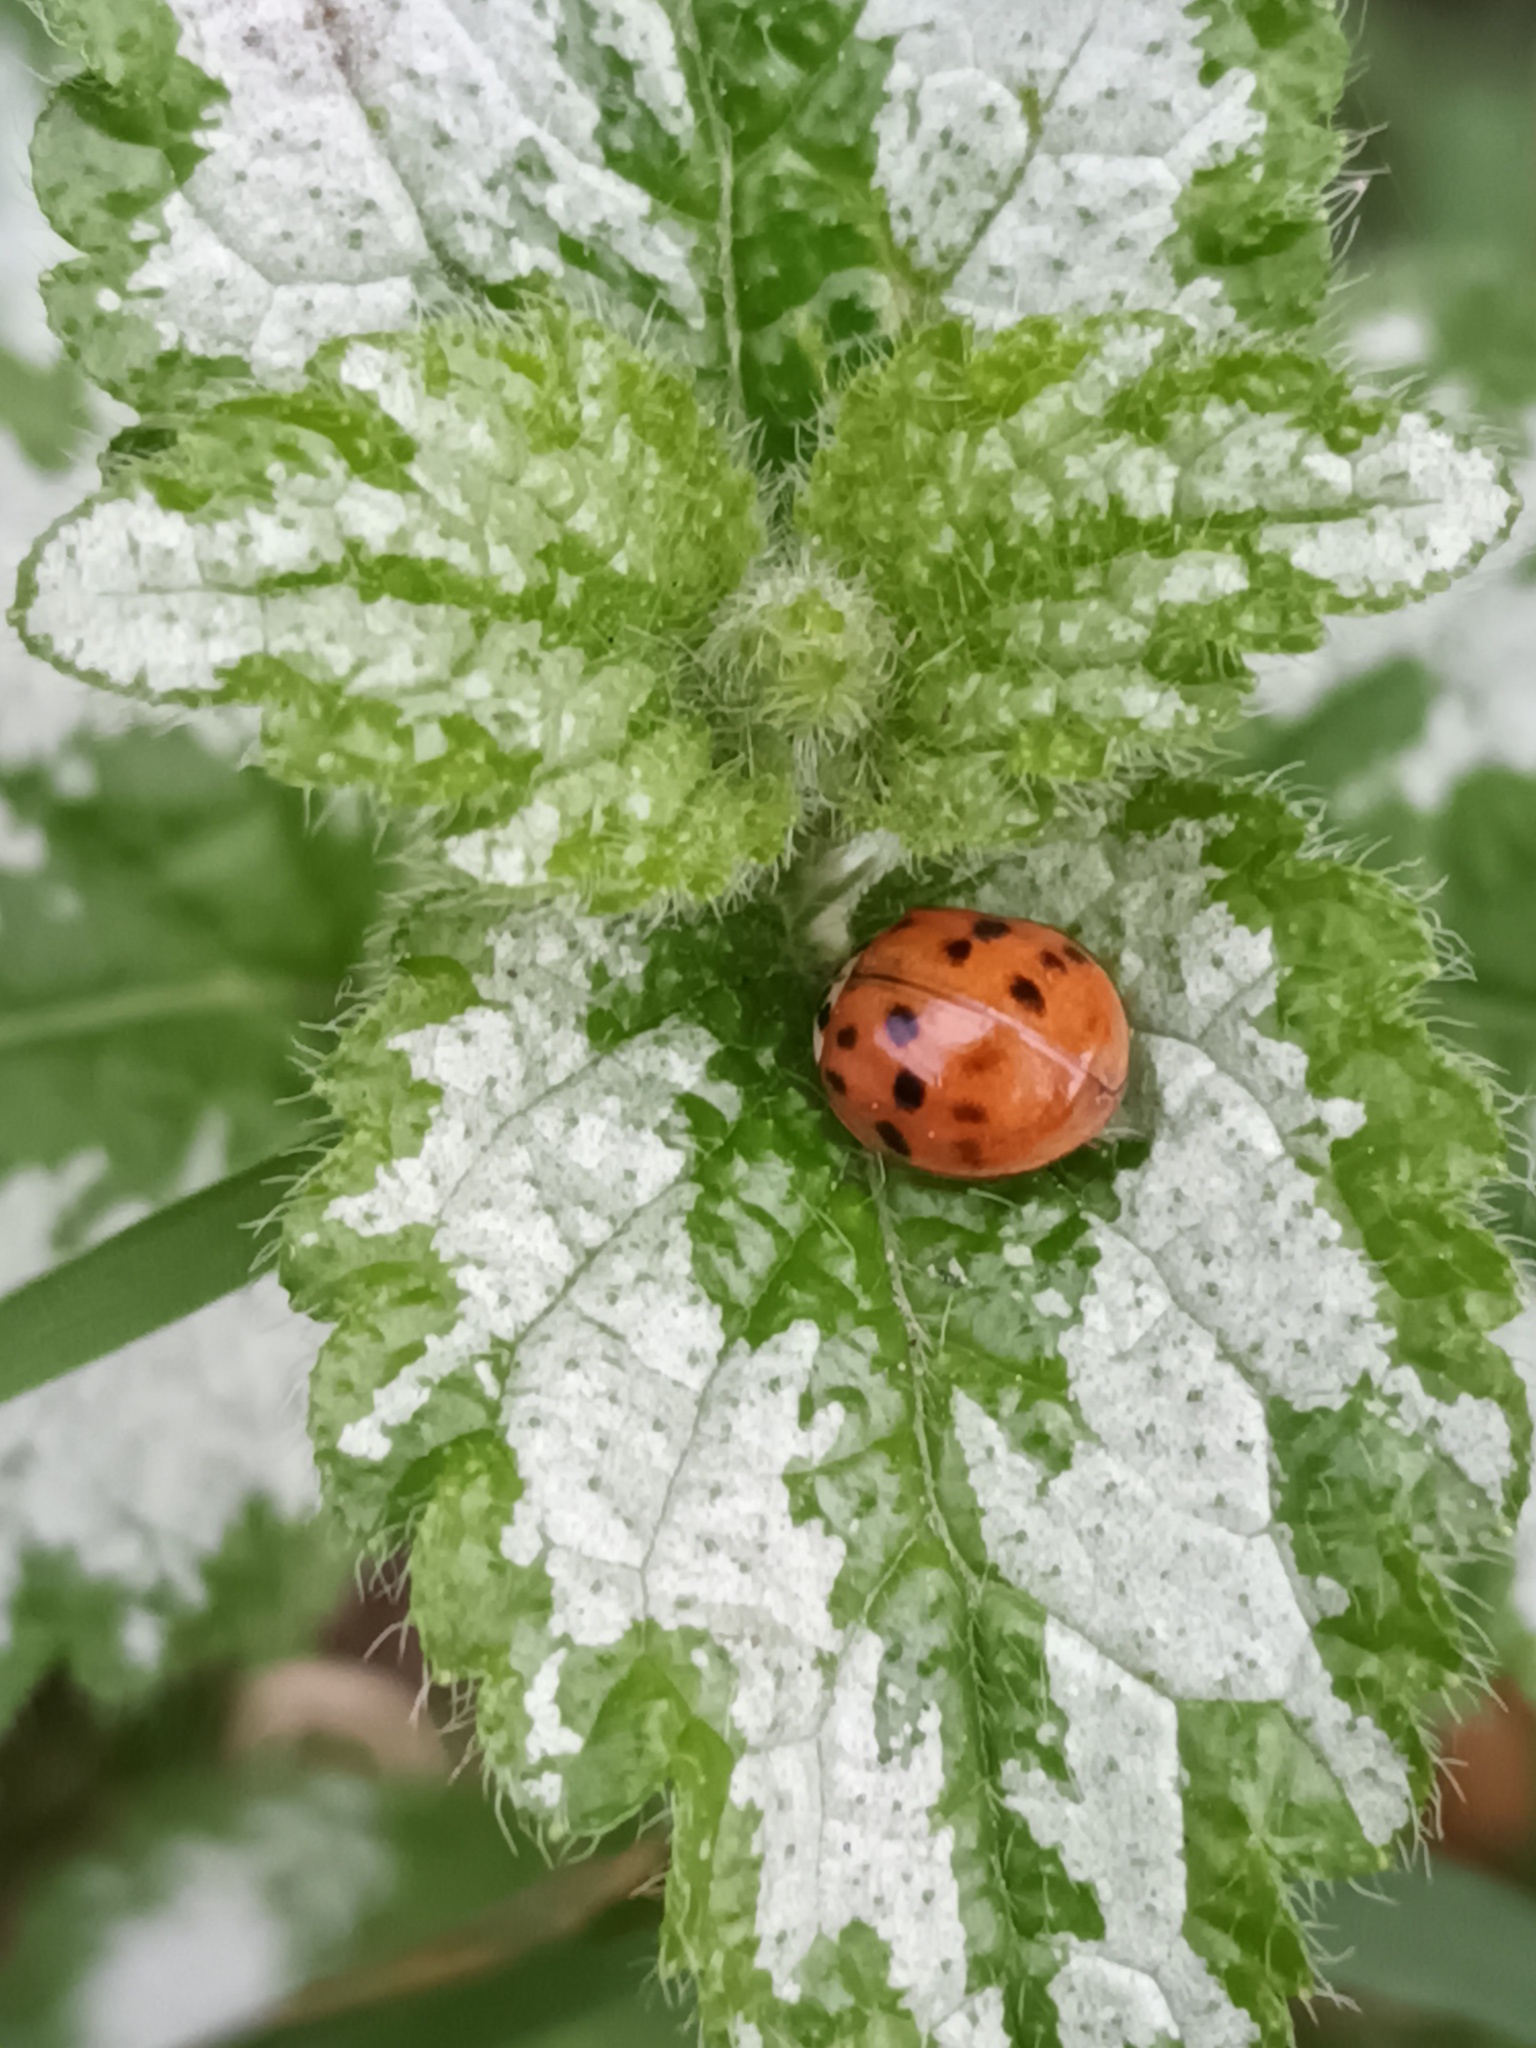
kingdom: Animalia
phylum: Arthropoda
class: Insecta
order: Coleoptera
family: Coccinellidae
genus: Harmonia
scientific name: Harmonia axyridis
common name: Harlequin ladybird
